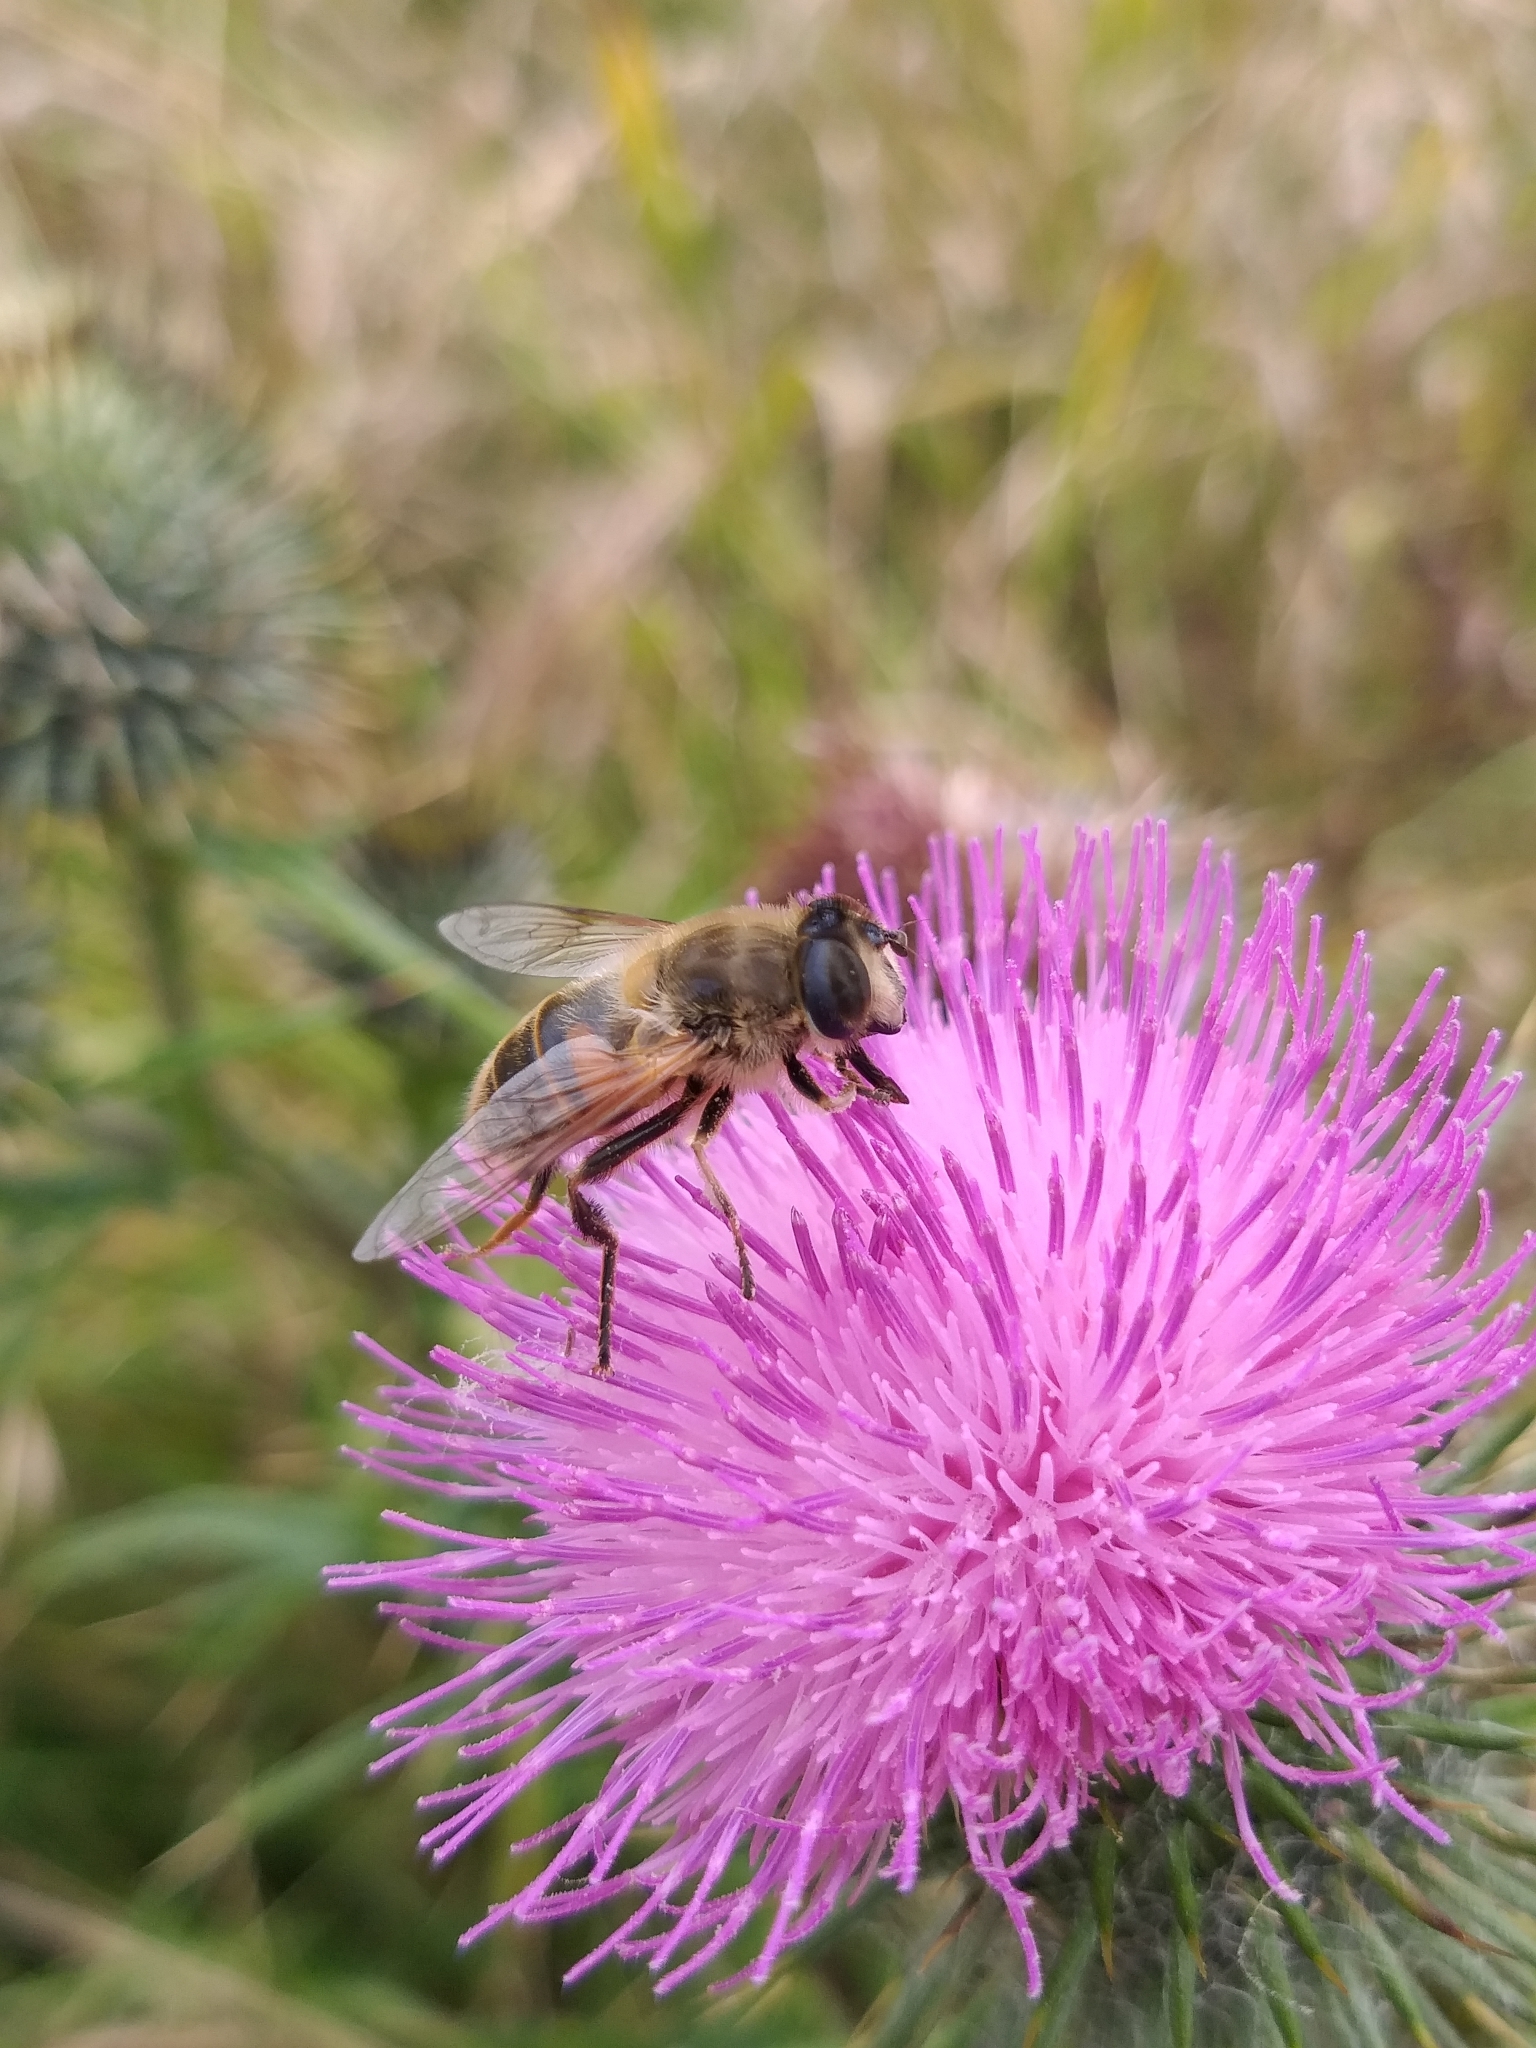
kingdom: Plantae
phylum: Tracheophyta
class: Magnoliopsida
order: Asterales
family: Asteraceae
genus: Cirsium
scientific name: Cirsium vulgare
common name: Bull thistle
